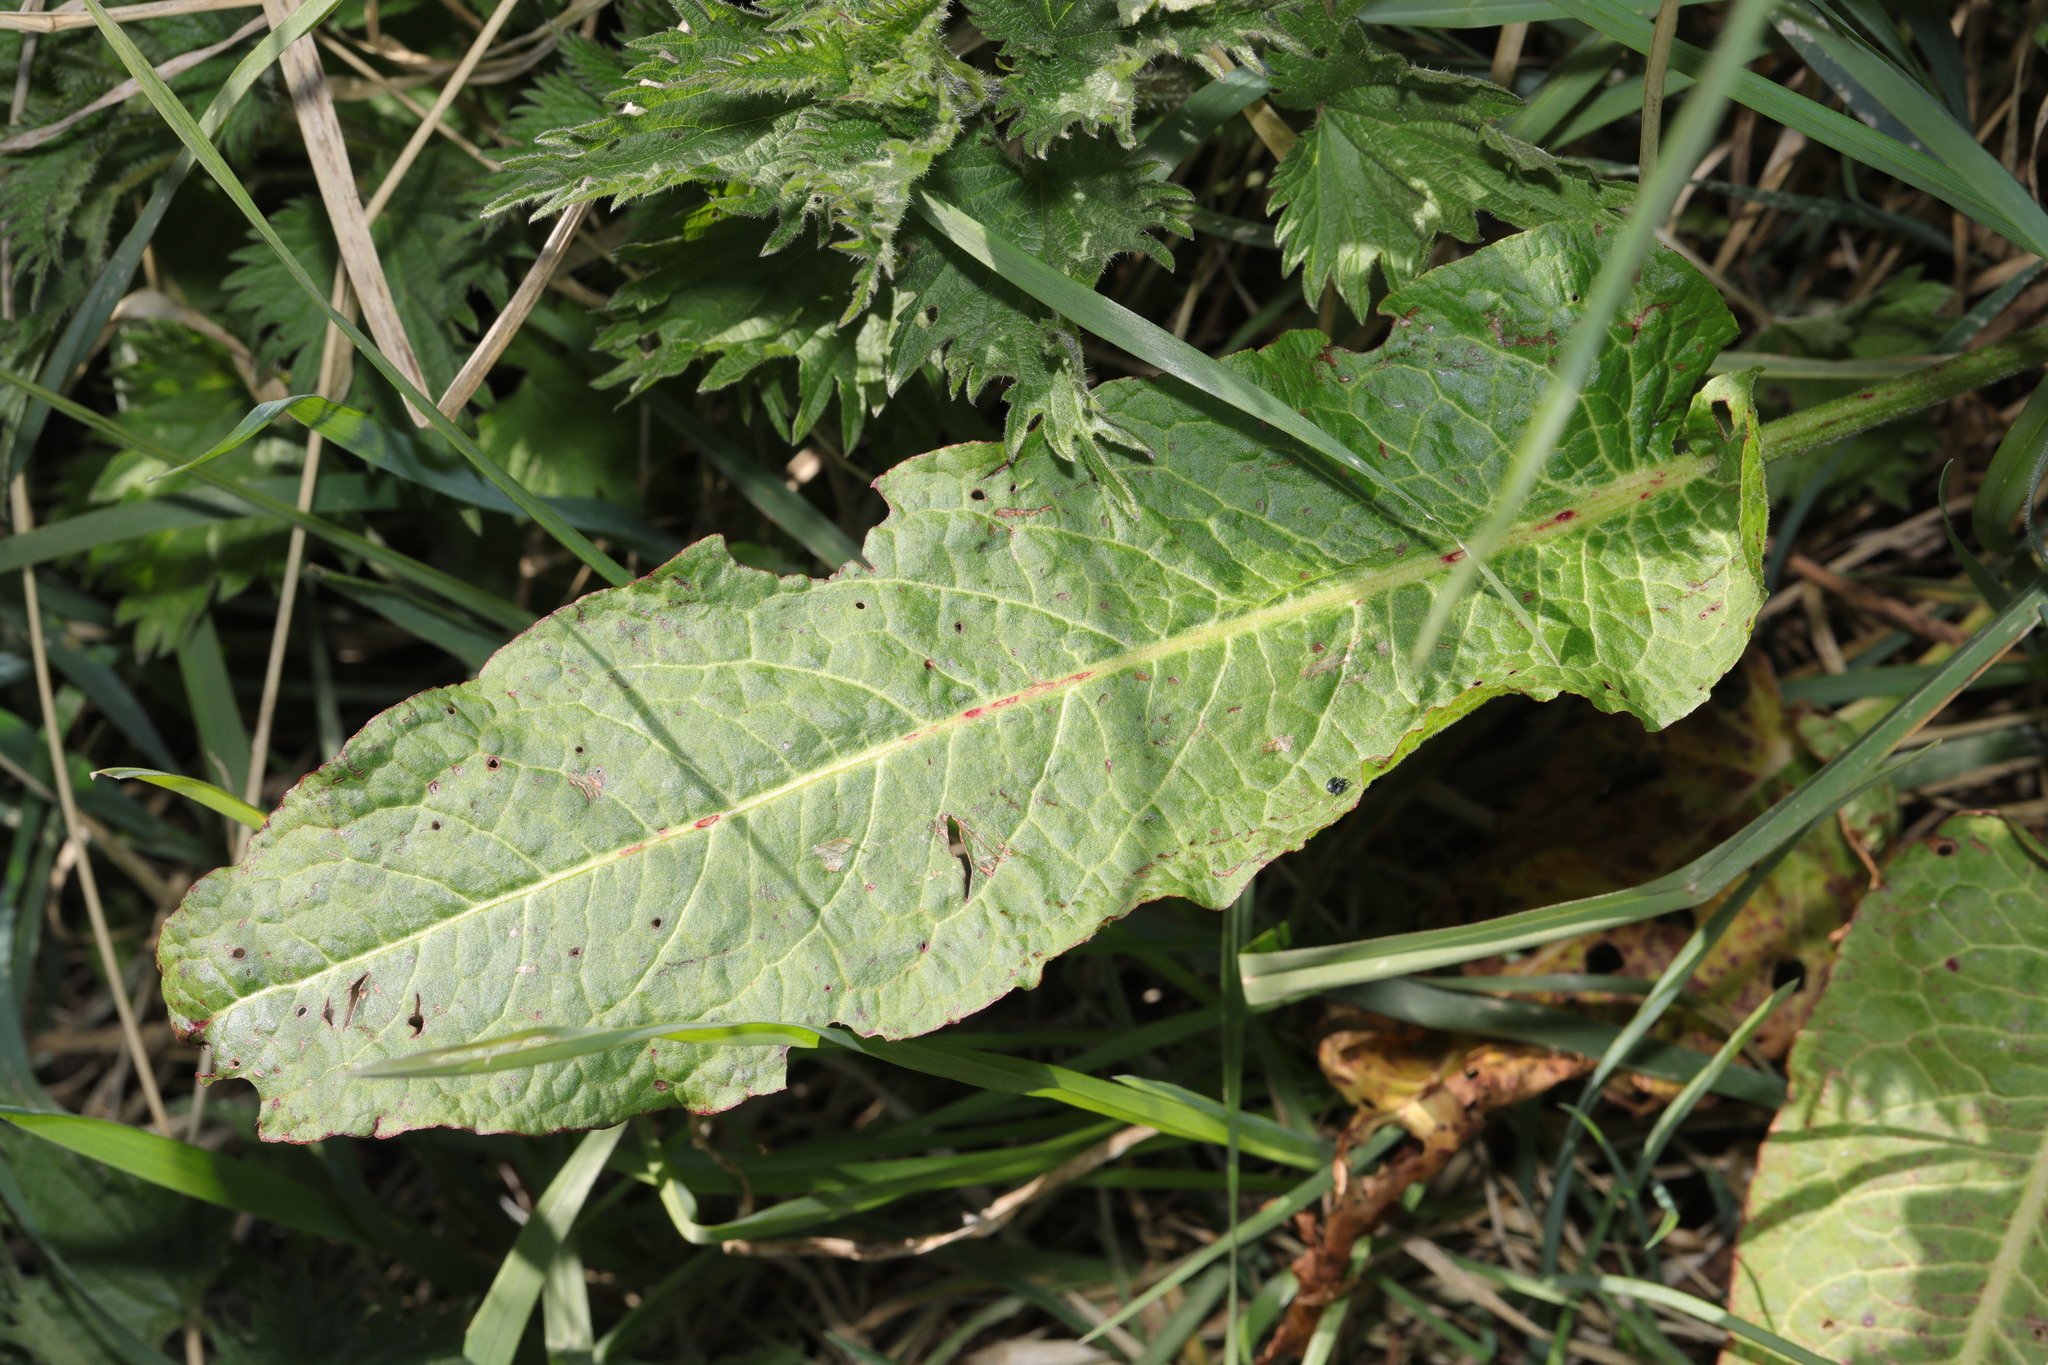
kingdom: Plantae
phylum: Tracheophyta
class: Magnoliopsida
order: Caryophyllales
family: Polygonaceae
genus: Rumex
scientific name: Rumex obtusifolius
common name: Bitter dock
